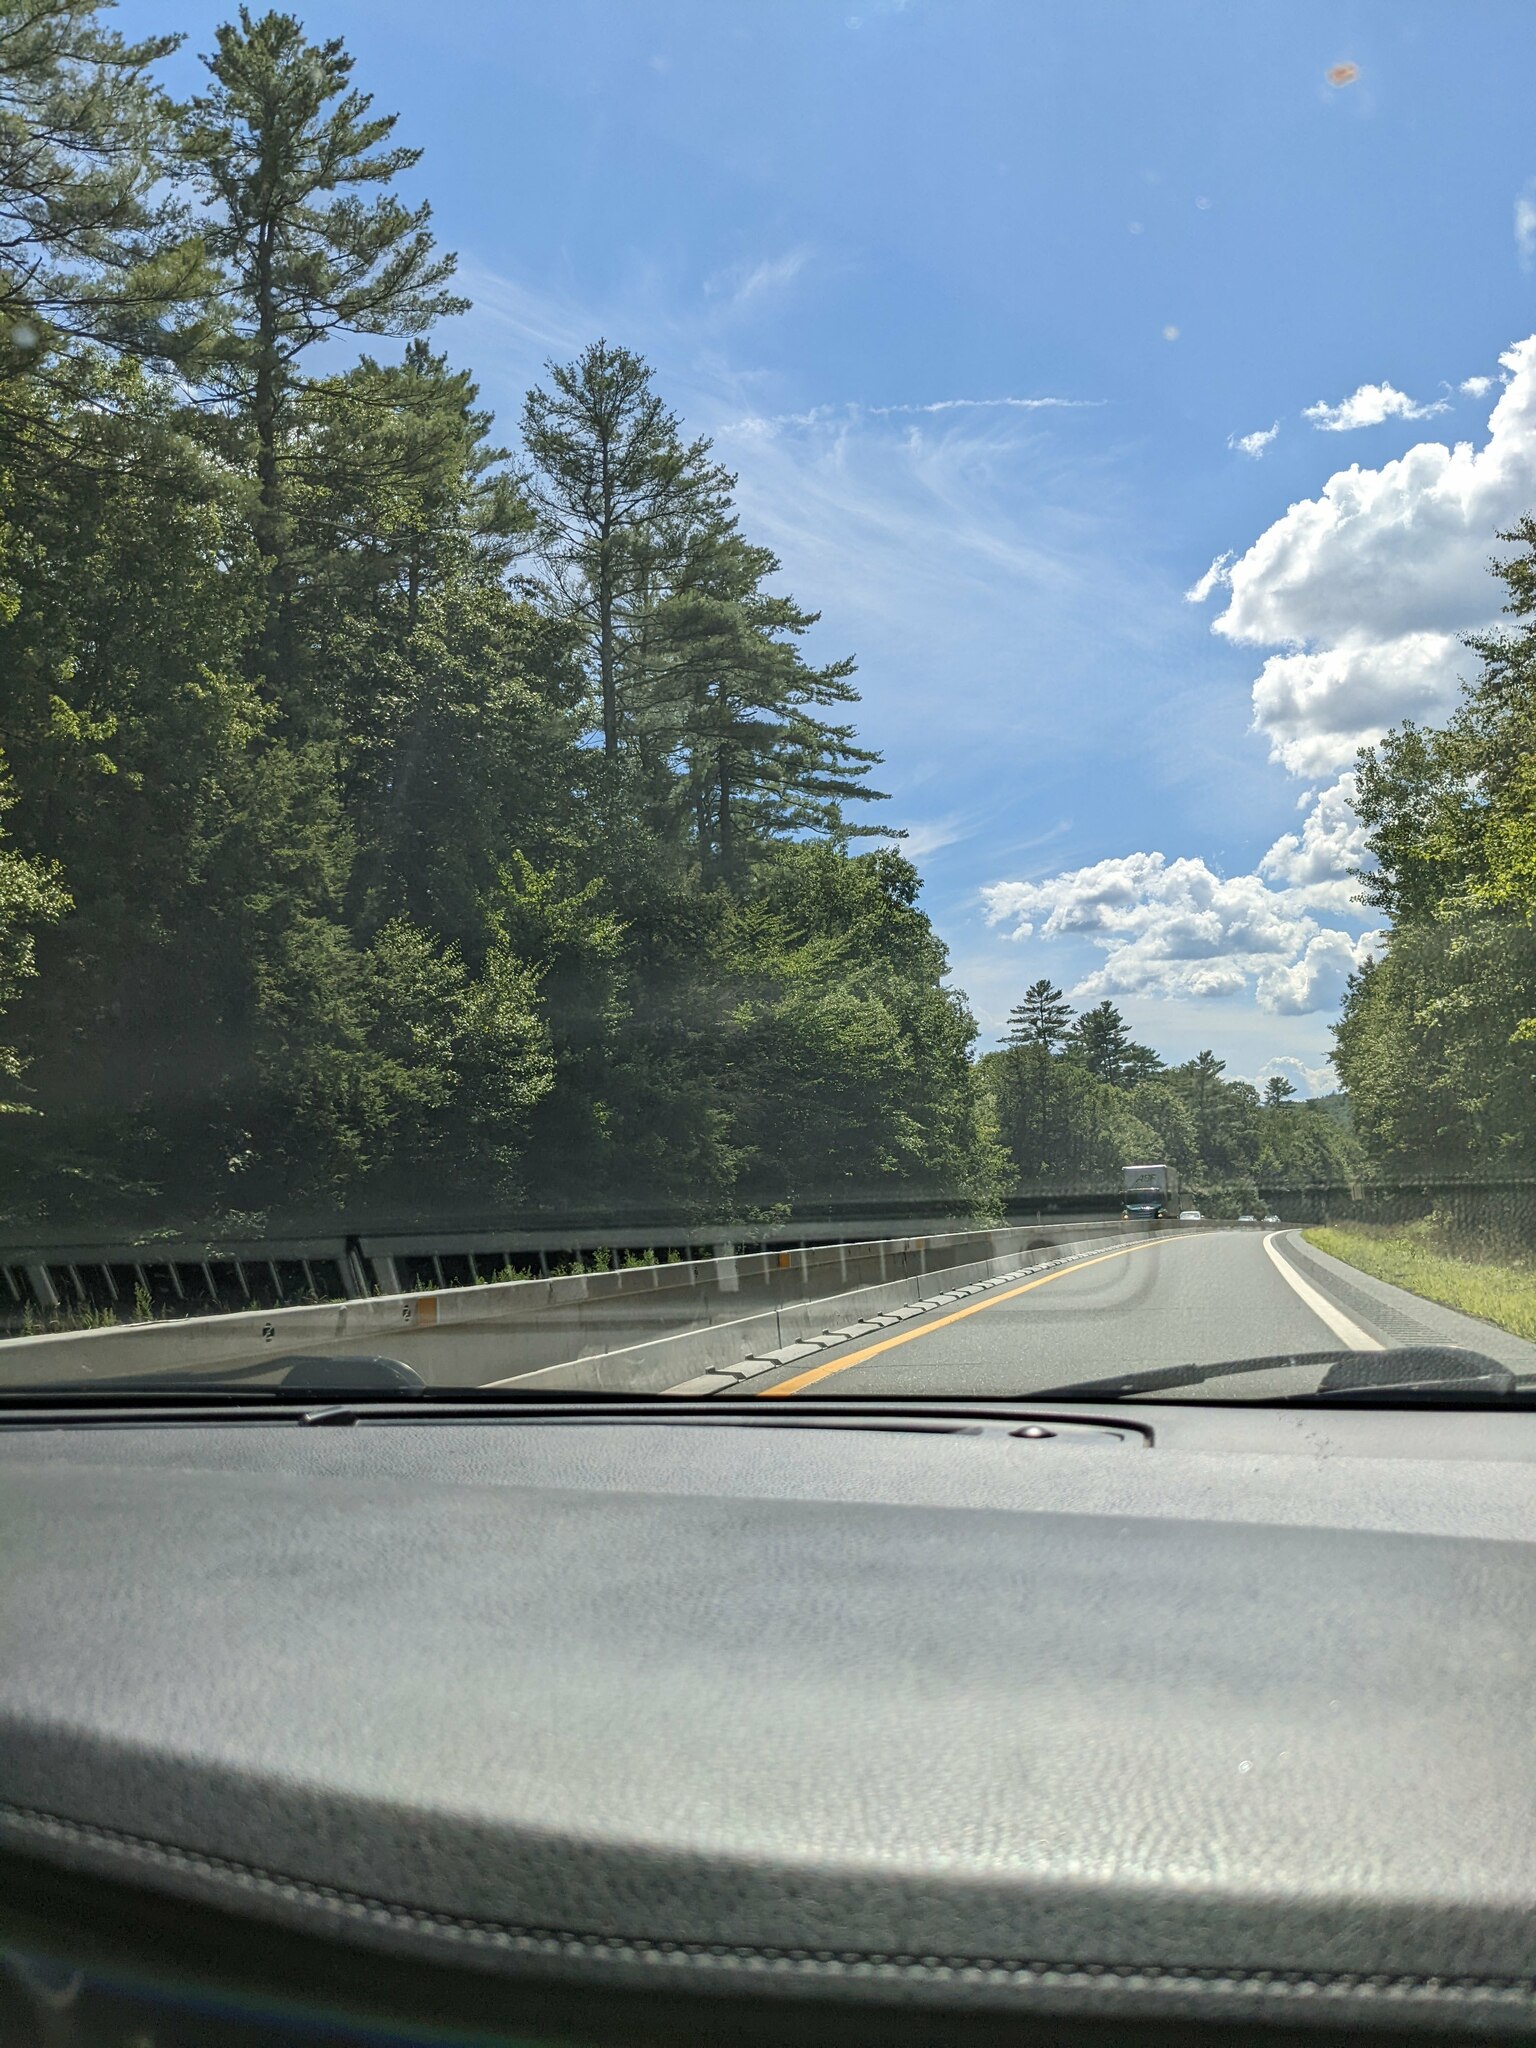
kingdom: Plantae
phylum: Tracheophyta
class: Pinopsida
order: Pinales
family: Pinaceae
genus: Pinus
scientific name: Pinus strobus
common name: Weymouth pine
